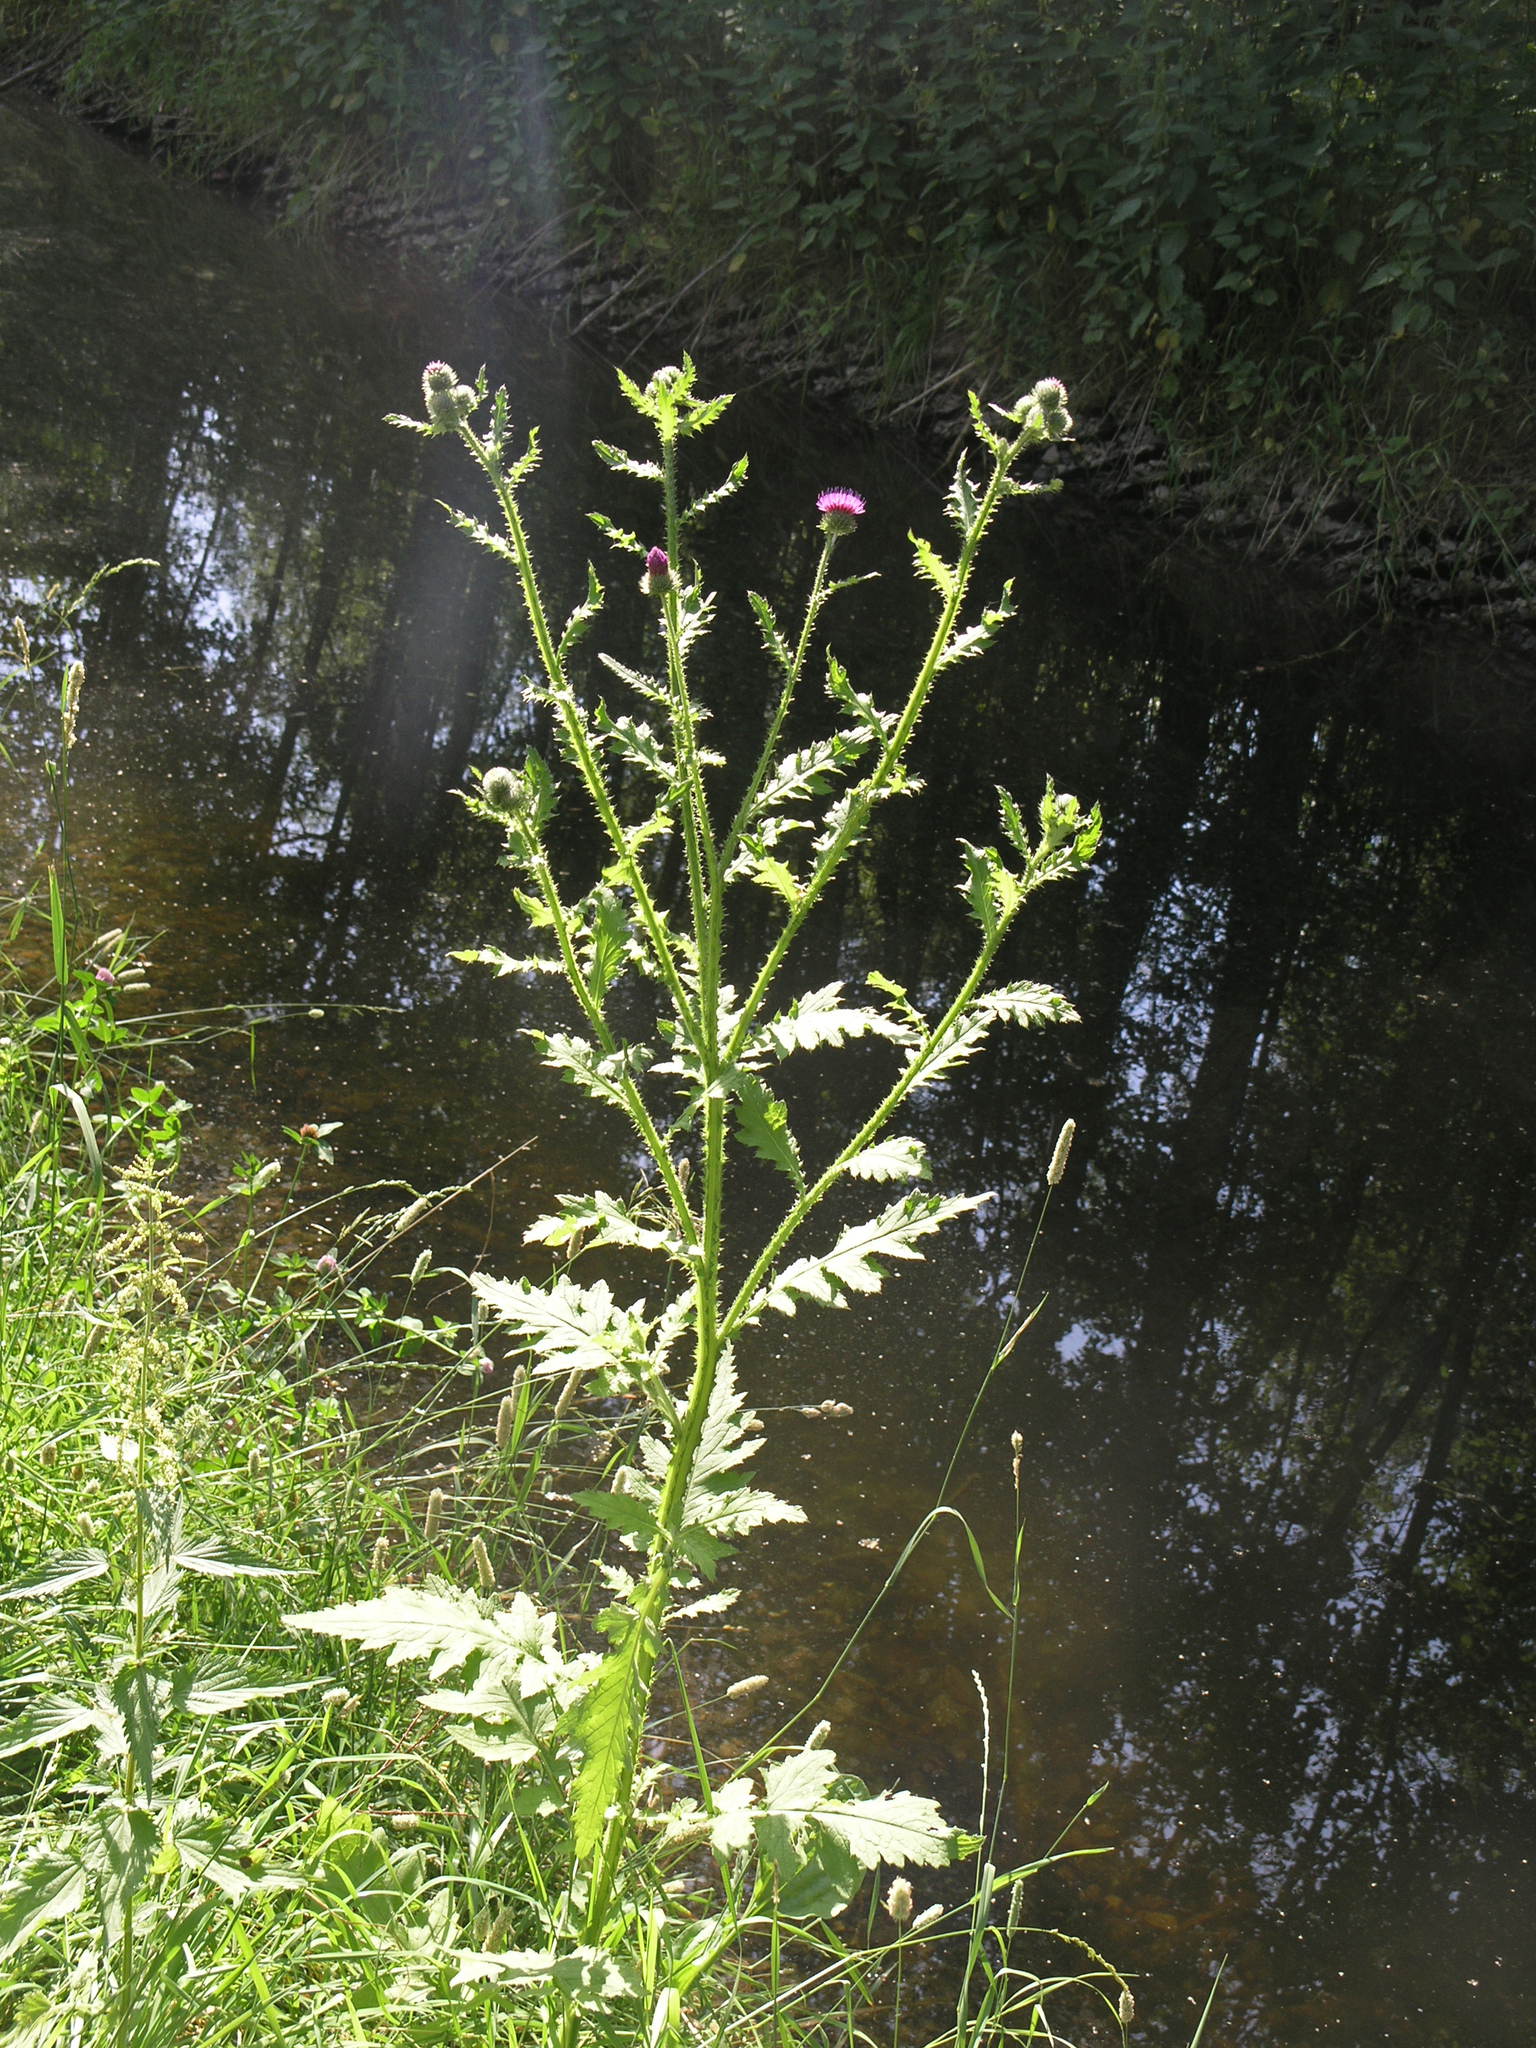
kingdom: Plantae
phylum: Tracheophyta
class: Magnoliopsida
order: Asterales
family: Asteraceae
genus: Carduus
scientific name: Carduus crispus
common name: Welted thistle
